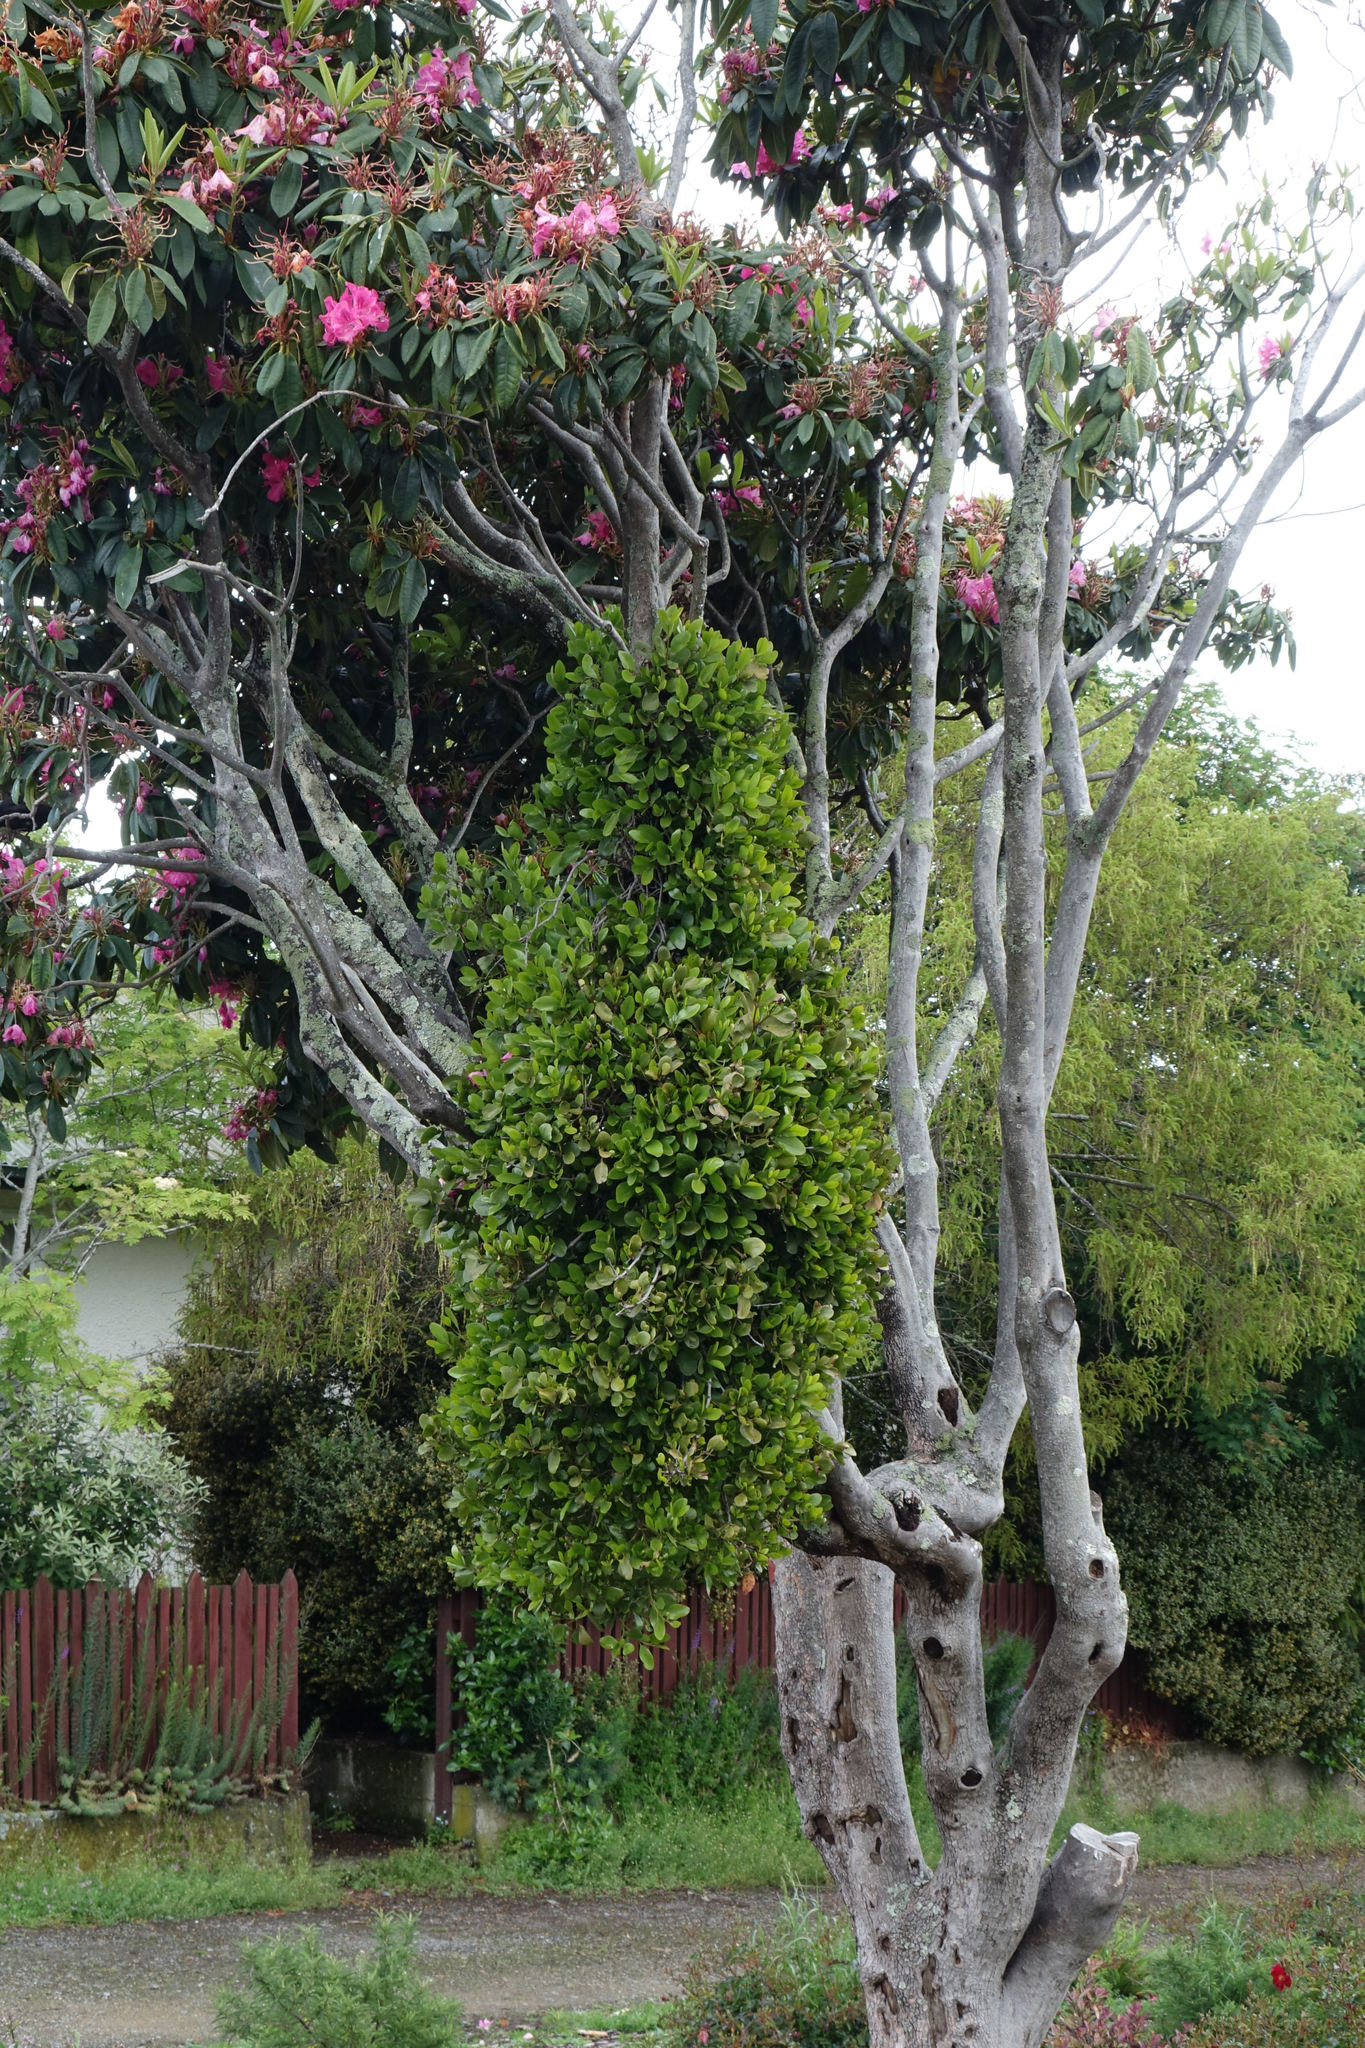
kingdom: Plantae
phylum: Tracheophyta
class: Magnoliopsida
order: Santalales
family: Loranthaceae
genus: Ileostylus
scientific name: Ileostylus micranthus
